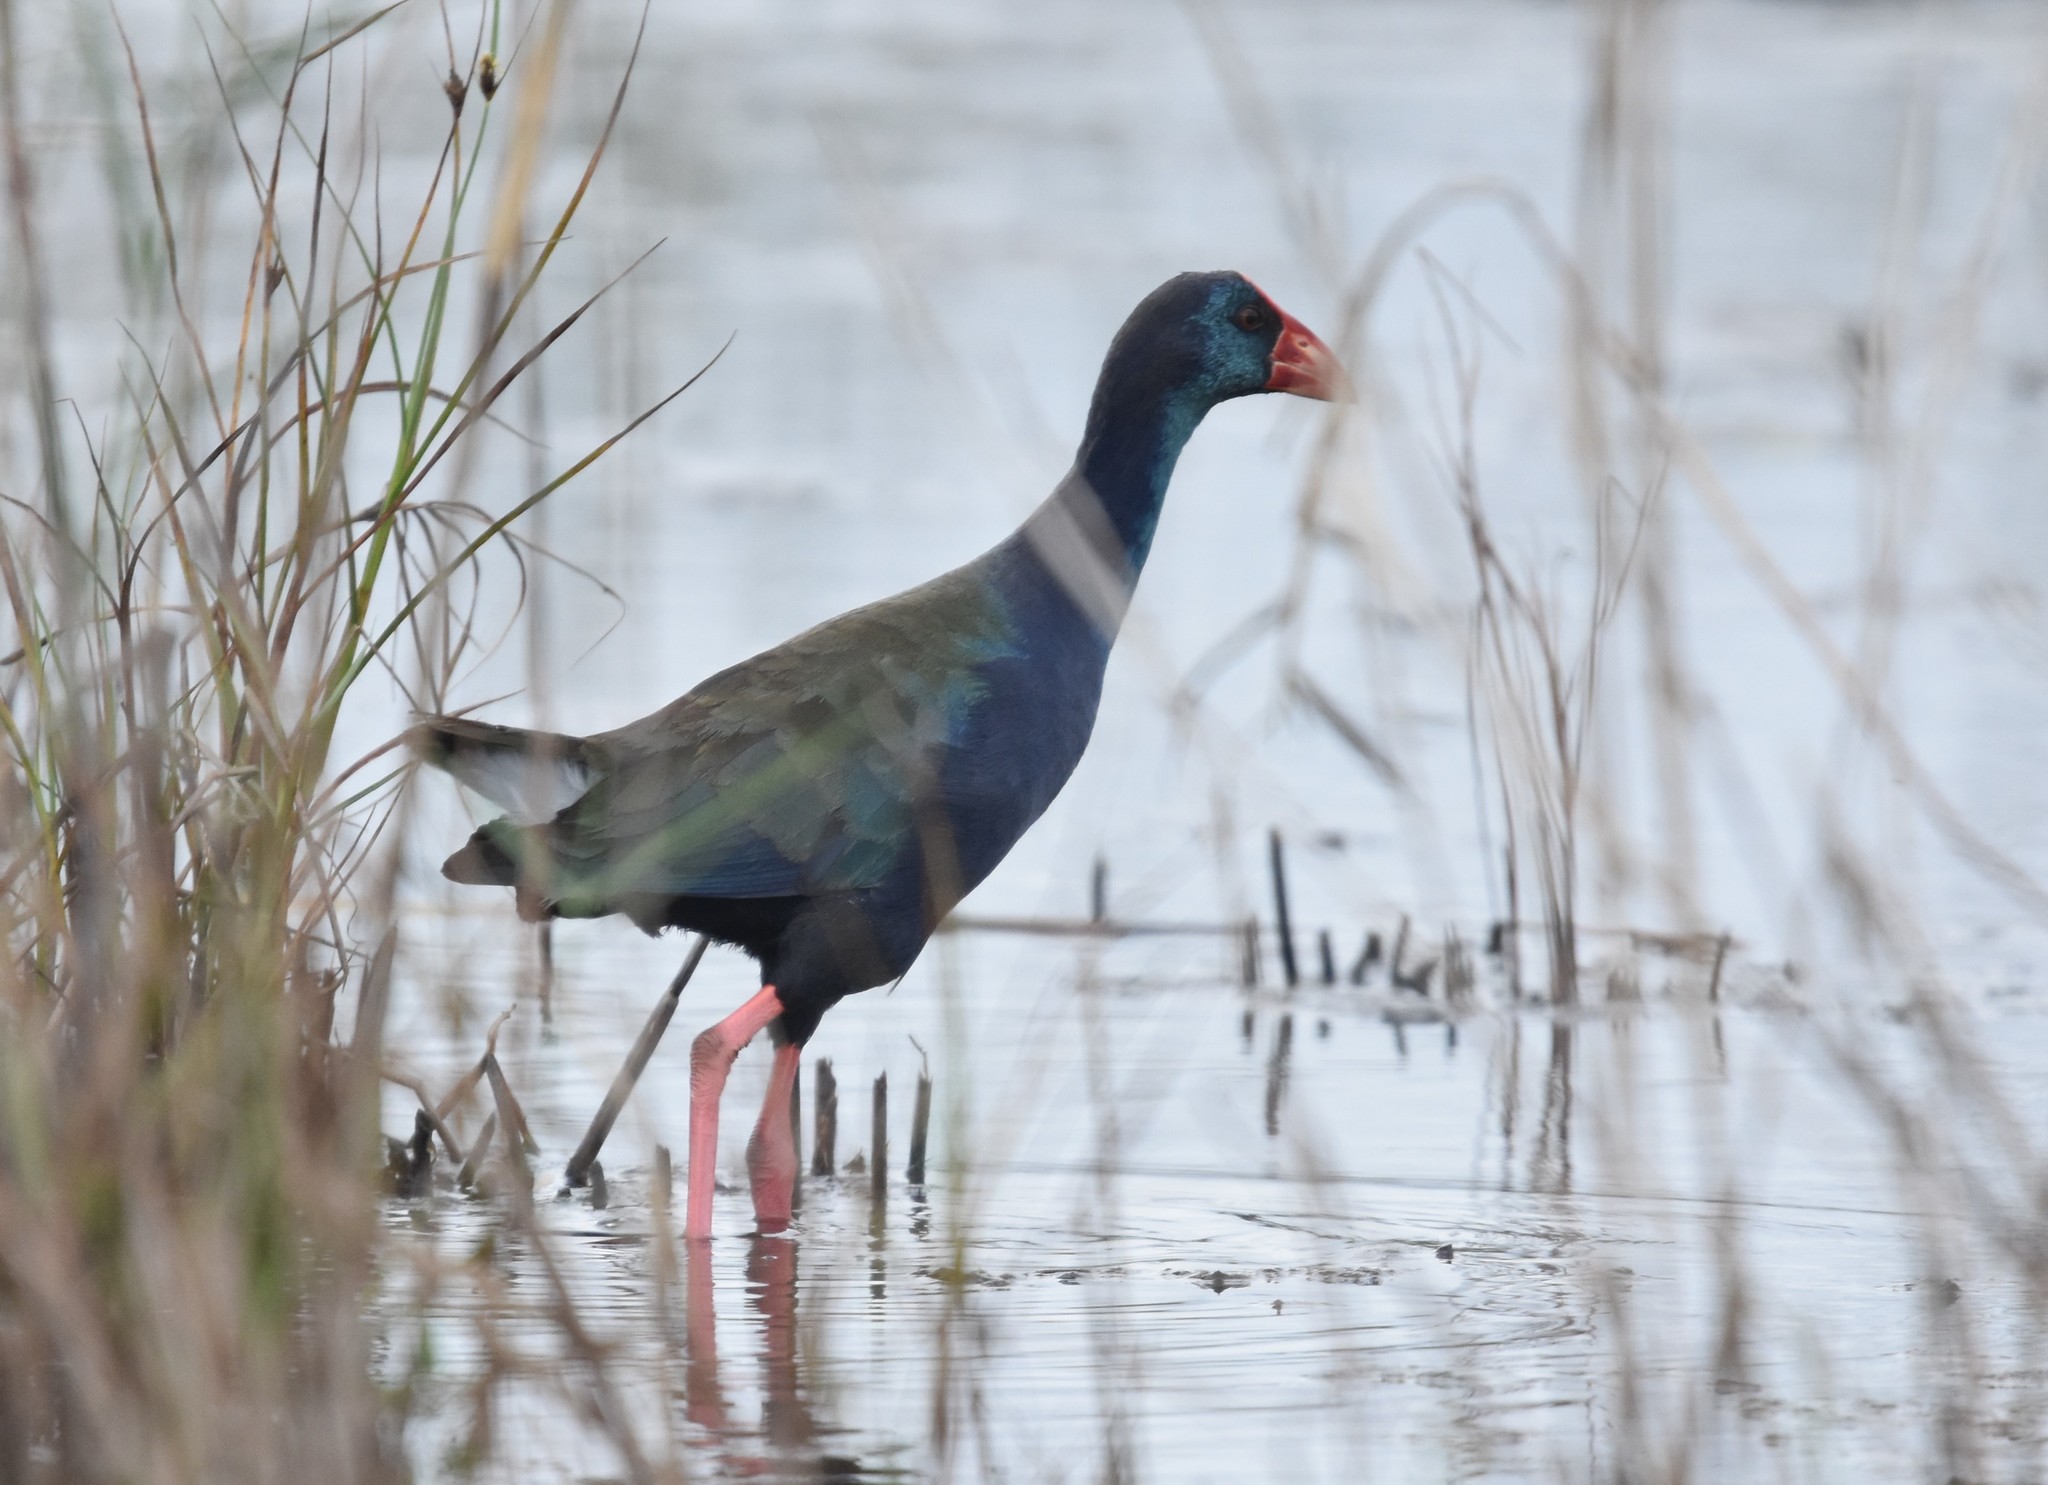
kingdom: Animalia
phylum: Chordata
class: Aves
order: Gruiformes
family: Rallidae
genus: Porphyrio
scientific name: Porphyrio porphyrio
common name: Purple swamphen
